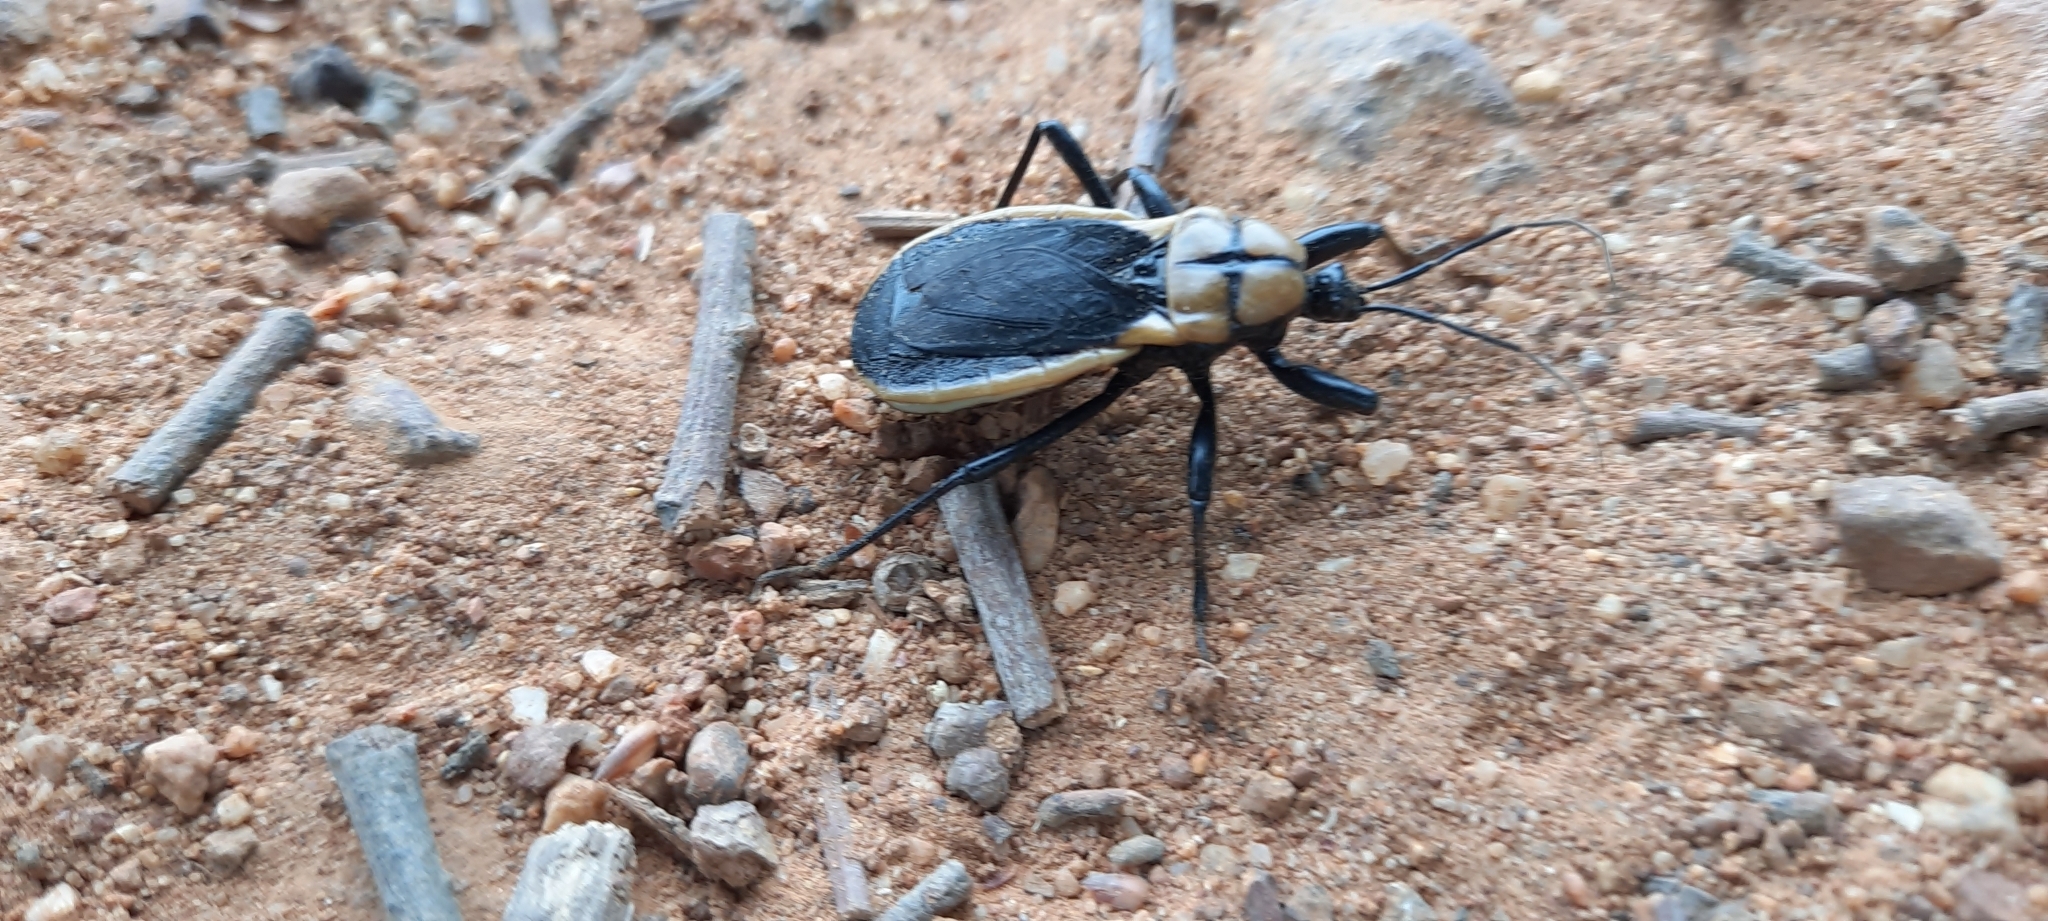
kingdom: Animalia
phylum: Arthropoda
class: Insecta
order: Hemiptera
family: Reduviidae
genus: Ectrichodia
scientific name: Ectrichodia crux
